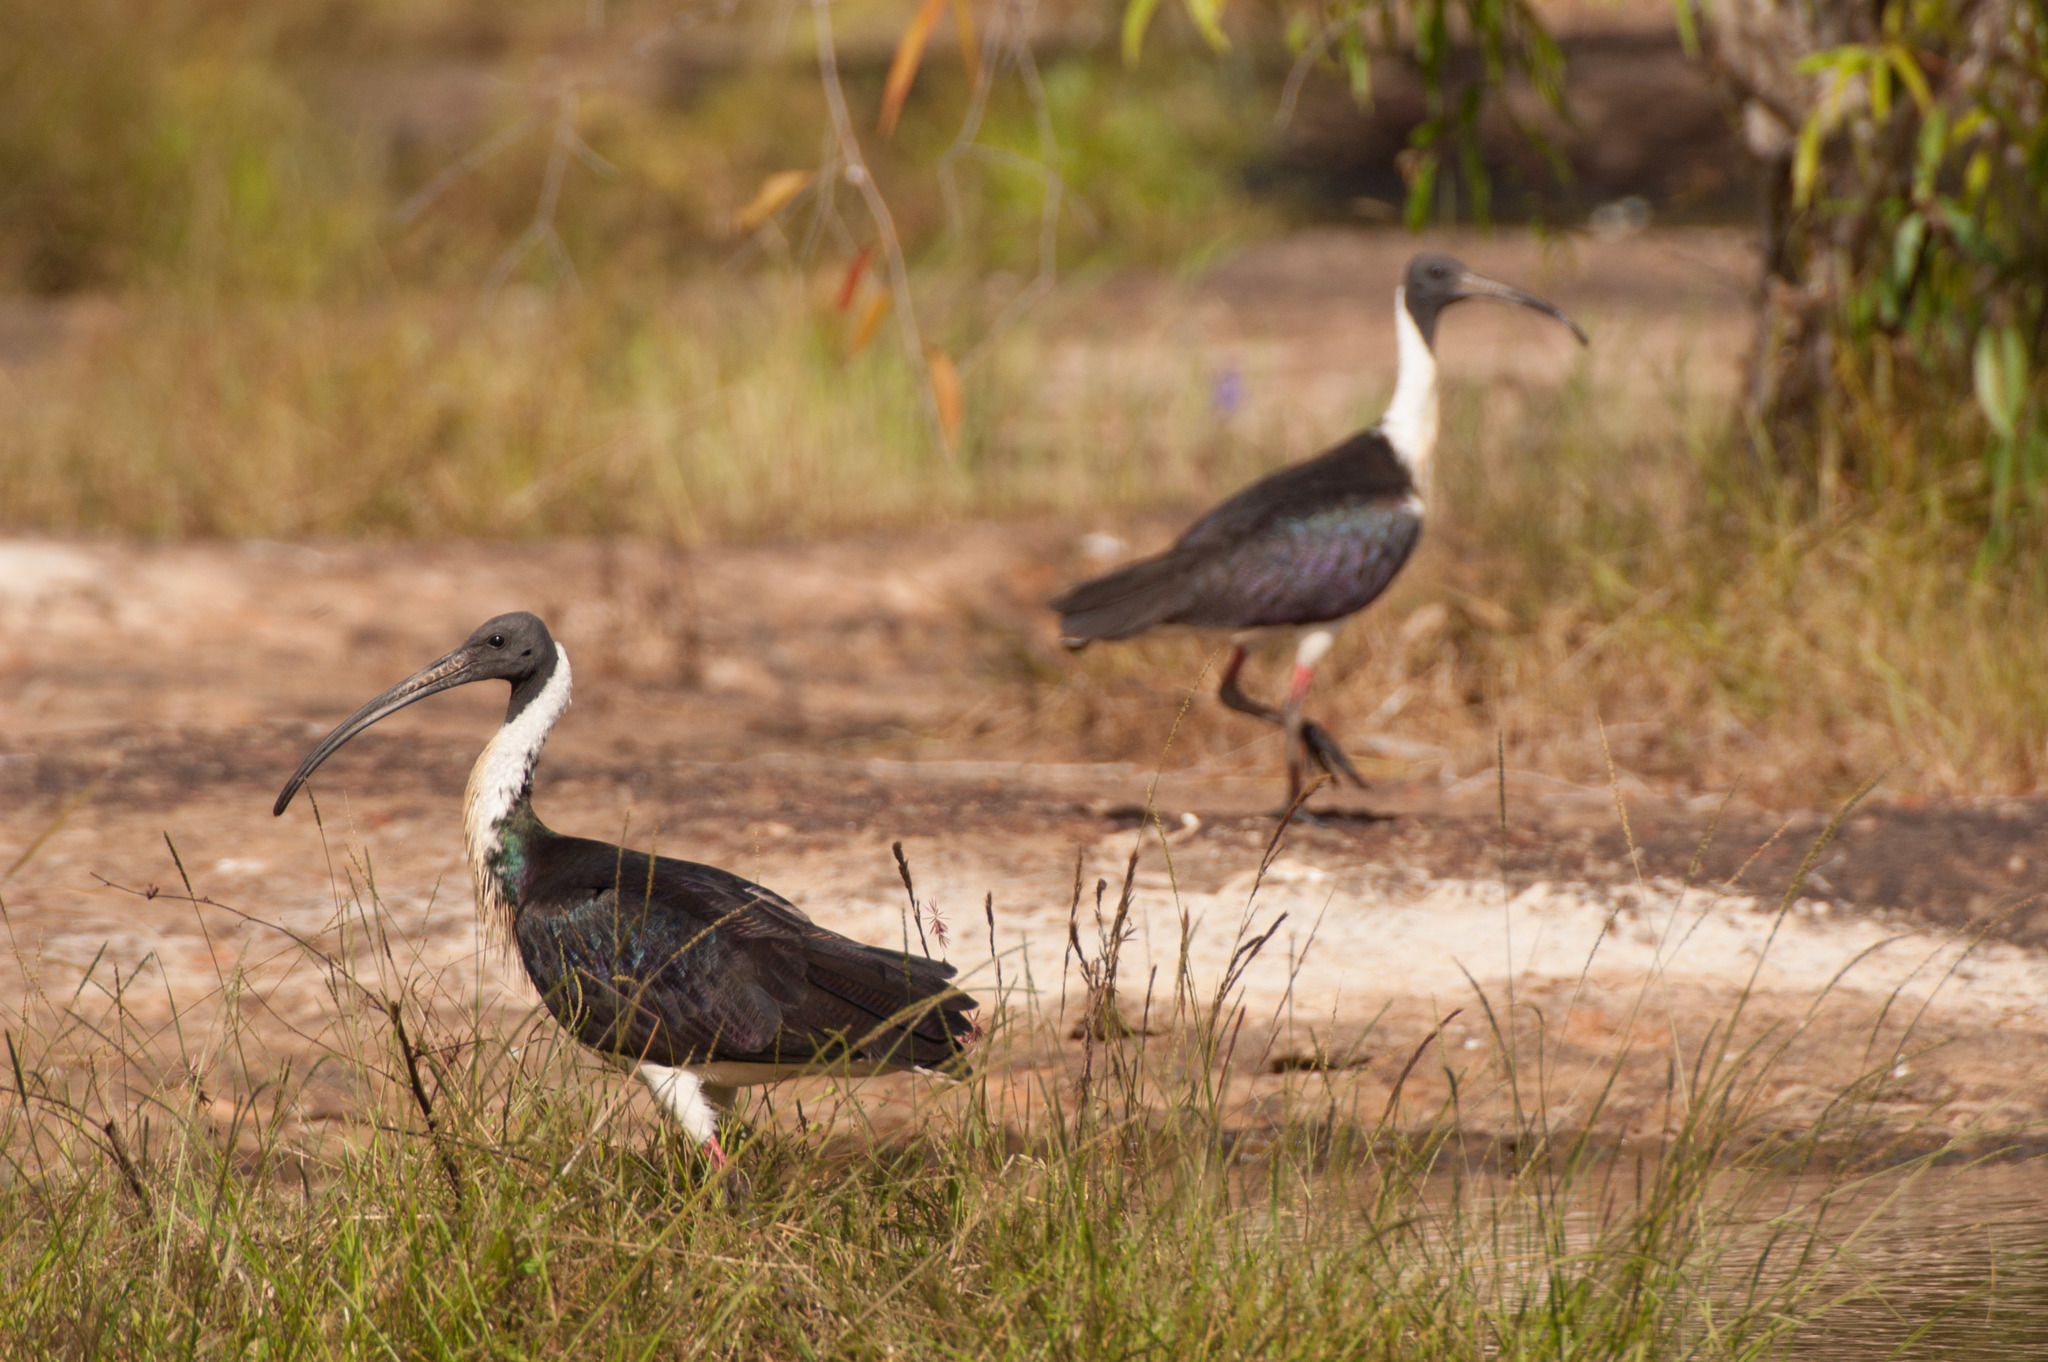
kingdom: Animalia
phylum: Chordata
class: Aves
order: Pelecaniformes
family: Threskiornithidae
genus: Threskiornis
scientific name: Threskiornis spinicollis
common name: Straw-necked ibis
